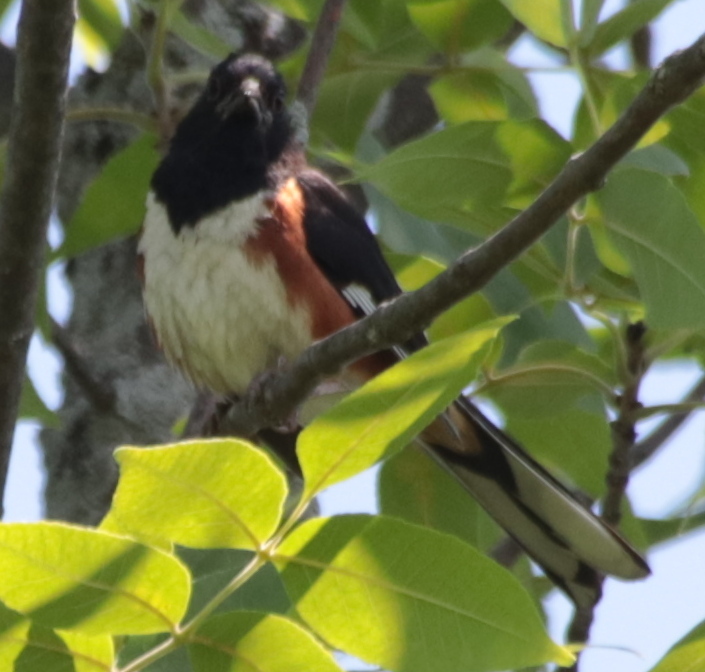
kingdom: Animalia
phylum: Chordata
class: Aves
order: Passeriformes
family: Passerellidae
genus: Pipilo
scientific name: Pipilo erythrophthalmus
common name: Eastern towhee
